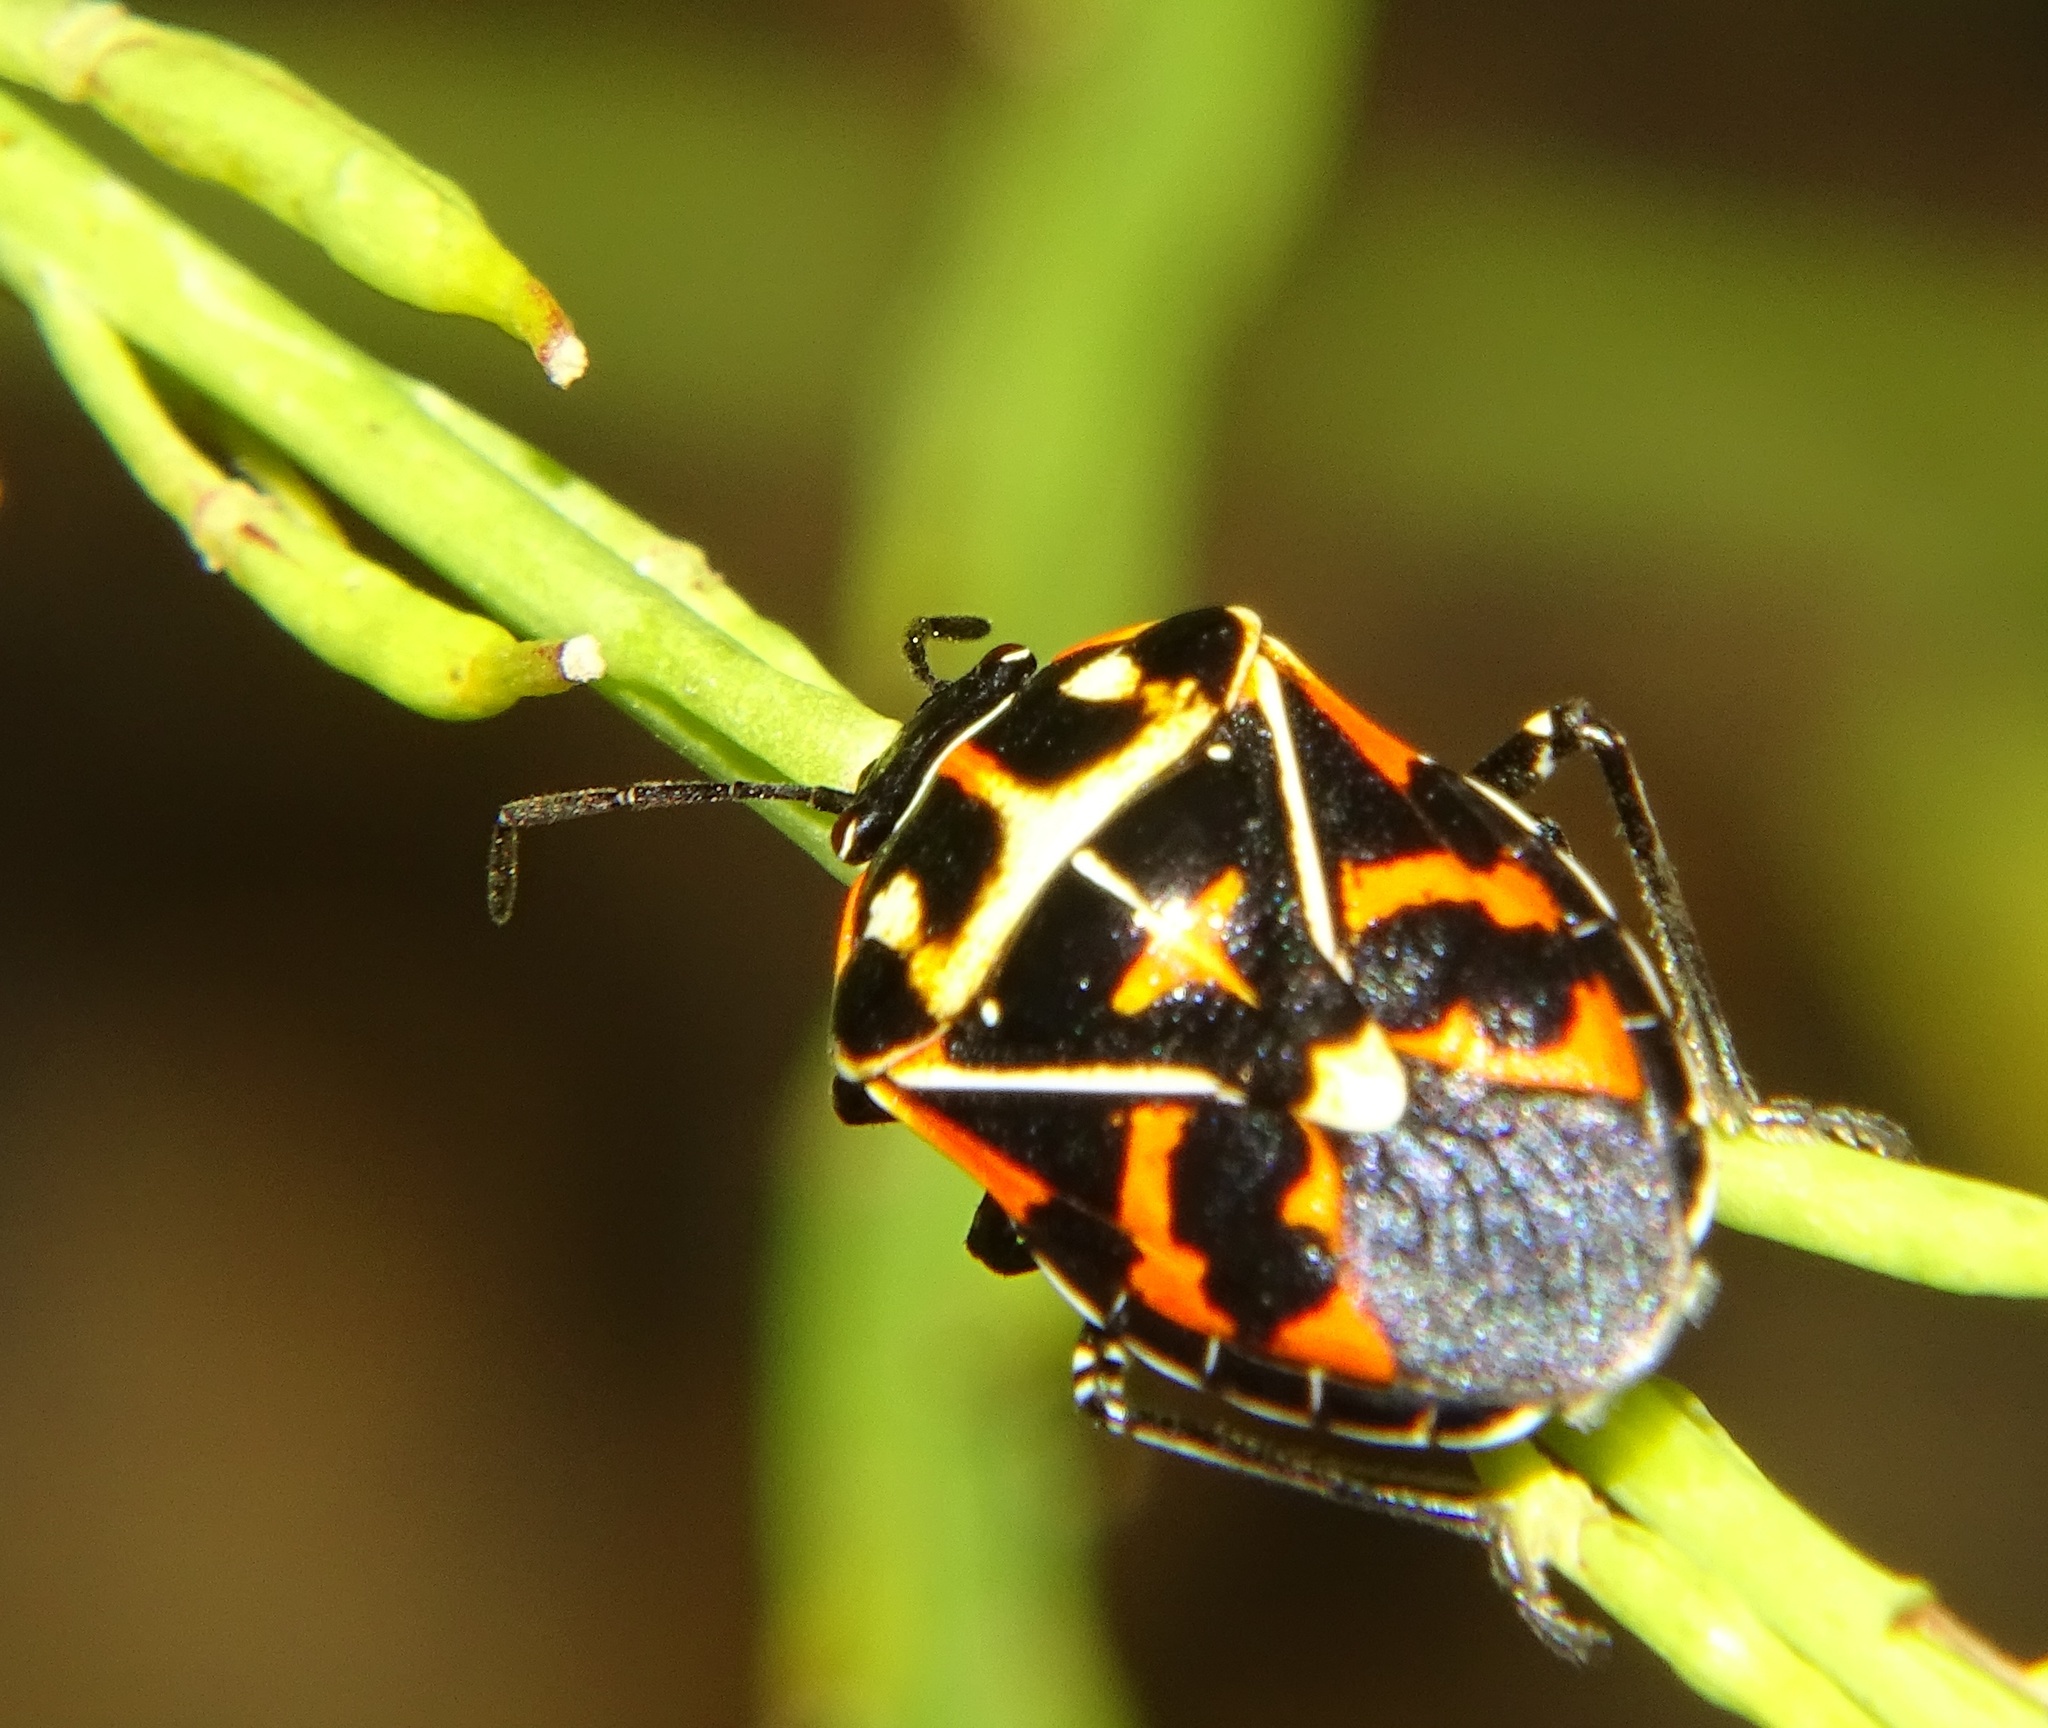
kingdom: Animalia
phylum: Arthropoda
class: Insecta
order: Hemiptera
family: Pentatomidae
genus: Murgantia
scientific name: Murgantia histrionica
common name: Harlequin bug
